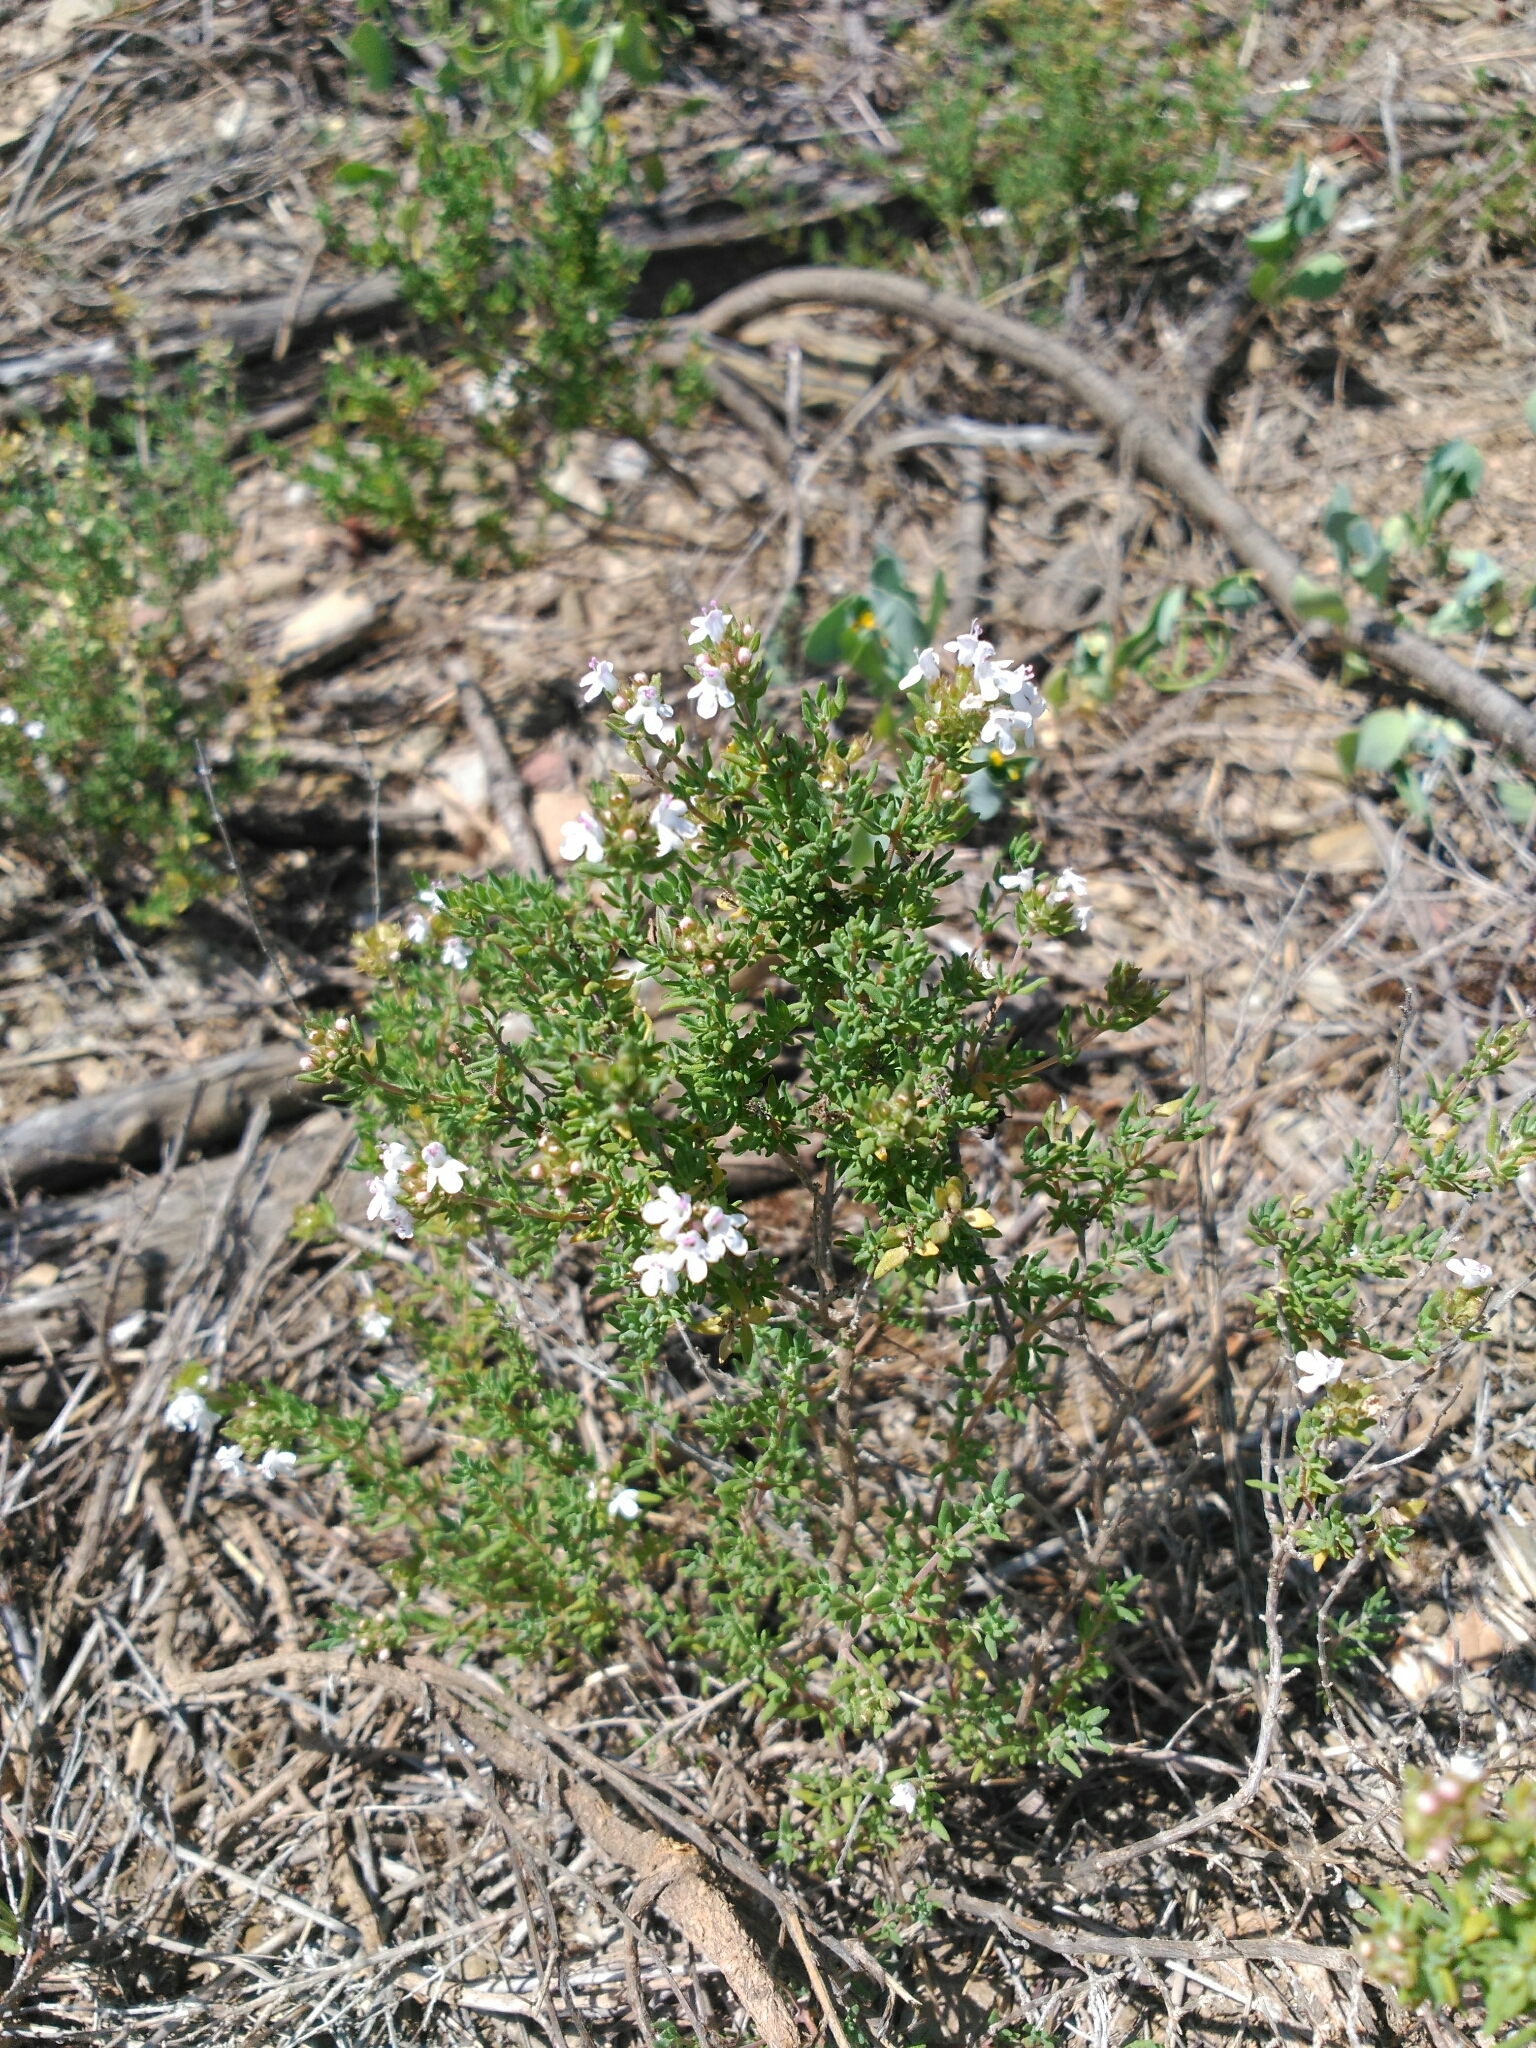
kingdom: Plantae
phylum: Tracheophyta
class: Magnoliopsida
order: Lamiales
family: Lamiaceae
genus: Thymus
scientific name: Thymus vulgaris
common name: Garden thyme
